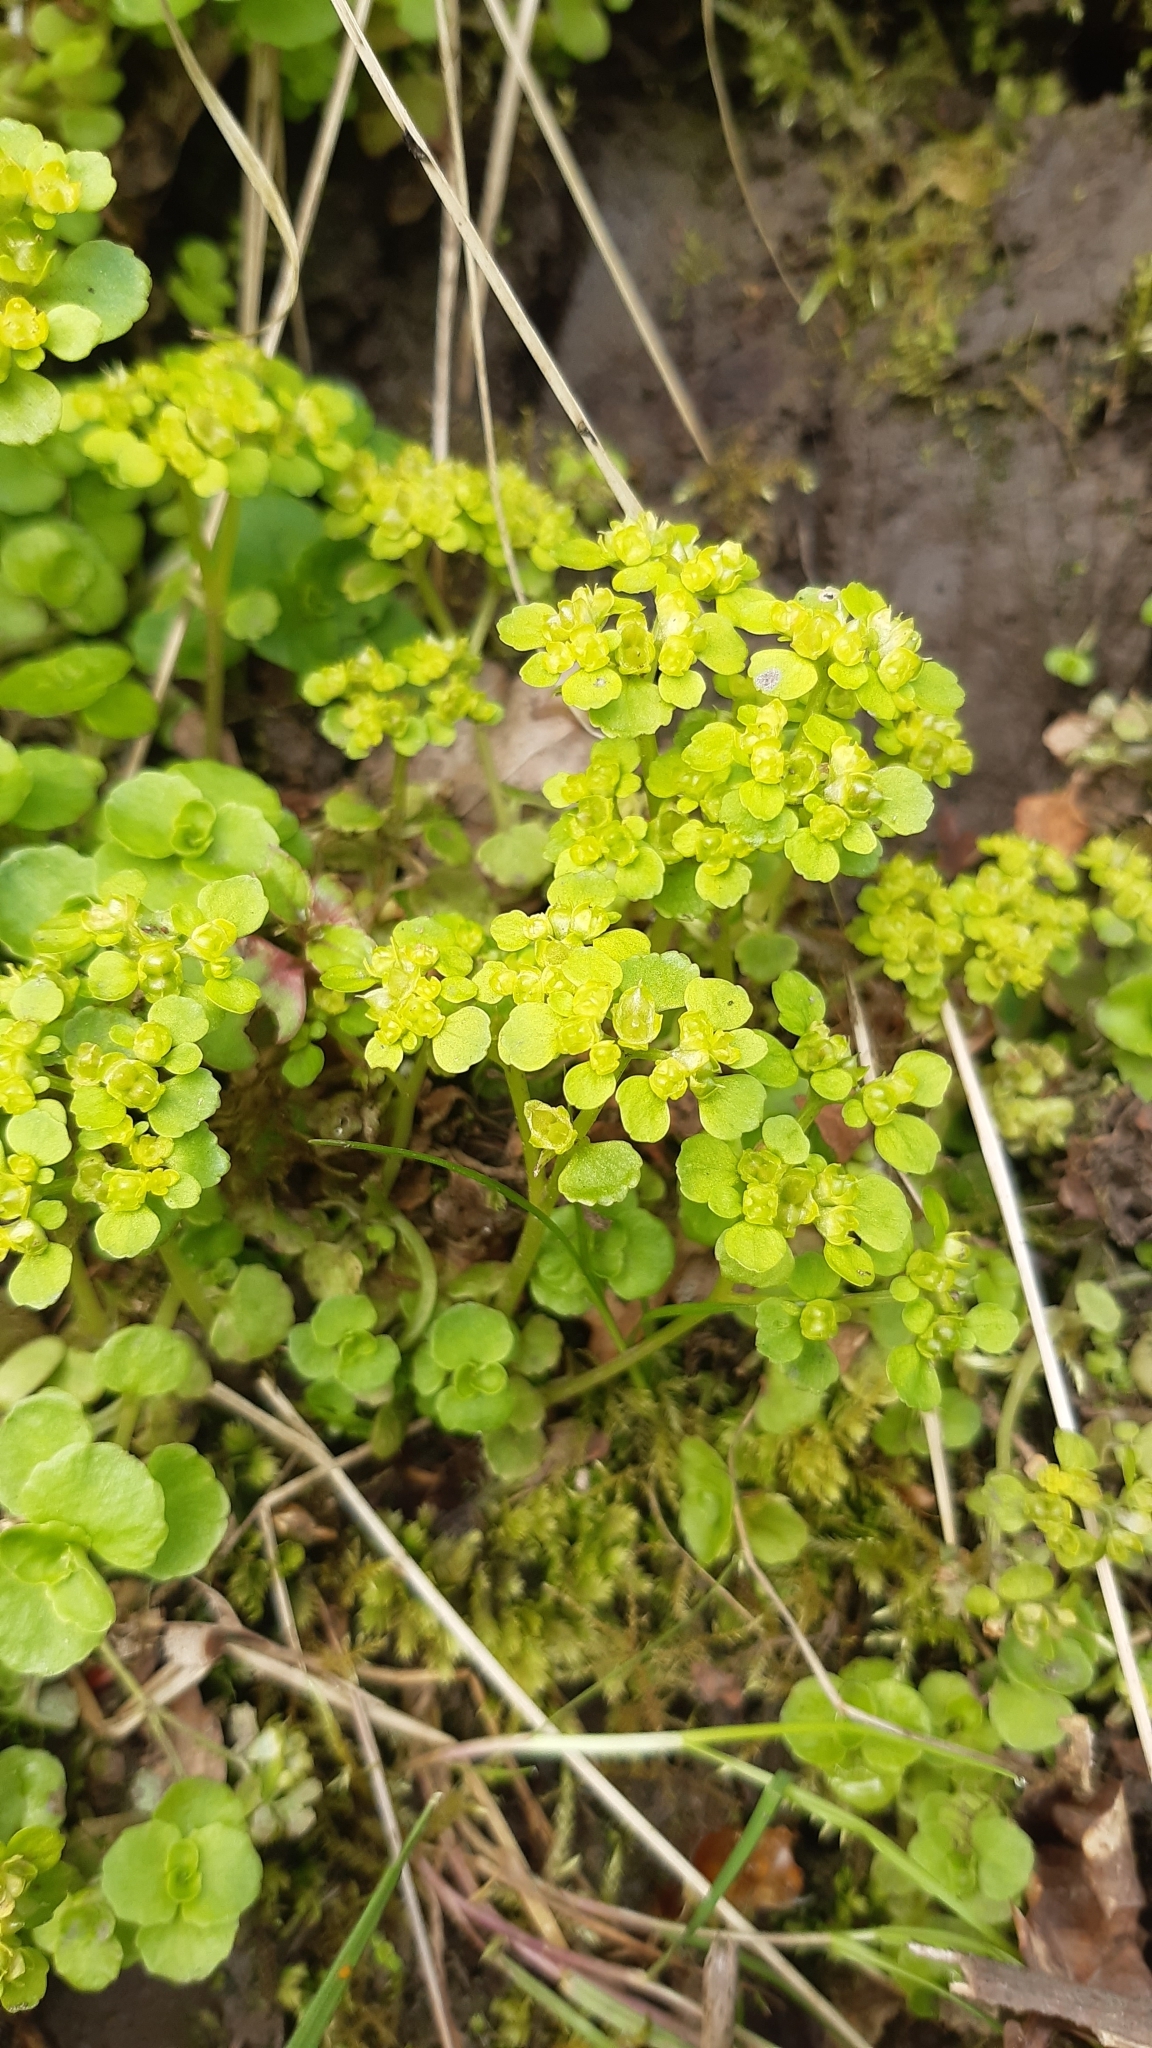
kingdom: Plantae
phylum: Tracheophyta
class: Magnoliopsida
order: Saxifragales
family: Saxifragaceae
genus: Chrysosplenium
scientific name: Chrysosplenium oppositifolium
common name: Opposite-leaved golden-saxifrage
